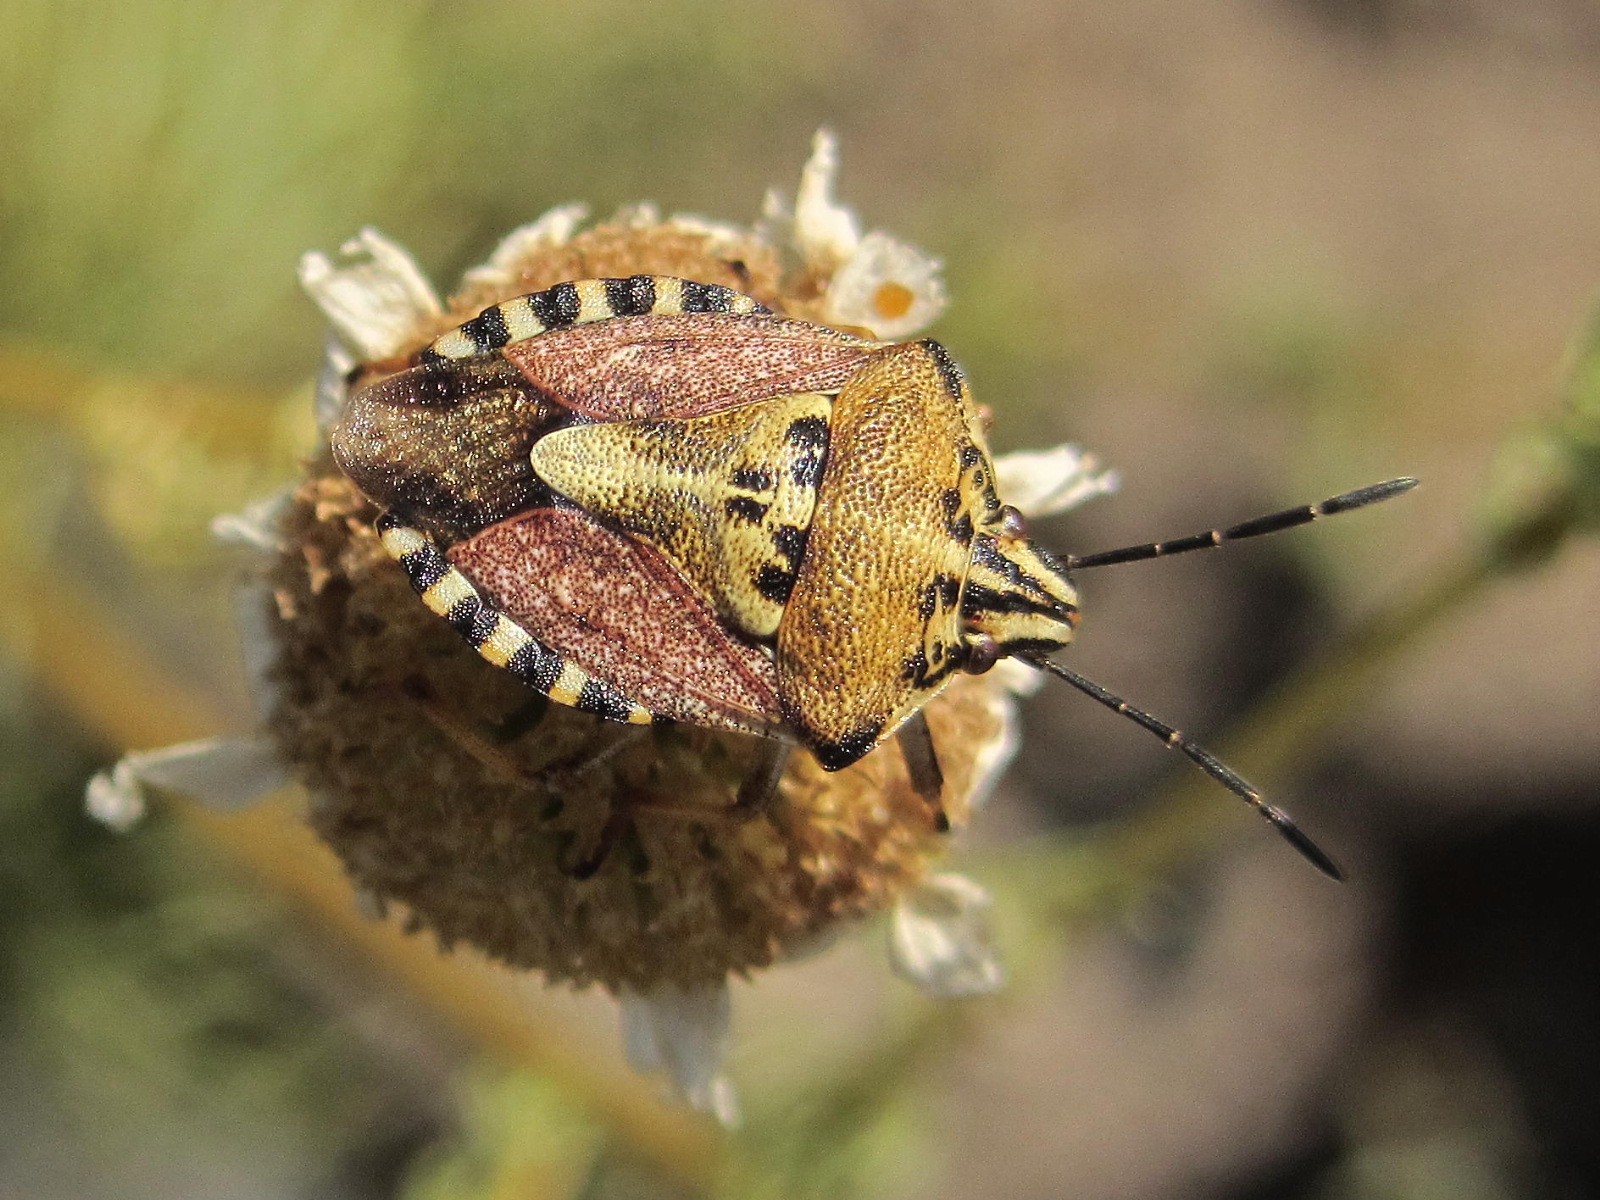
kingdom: Animalia
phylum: Arthropoda
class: Insecta
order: Hemiptera
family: Pentatomidae
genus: Carpocoris
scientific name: Carpocoris purpureipennis
